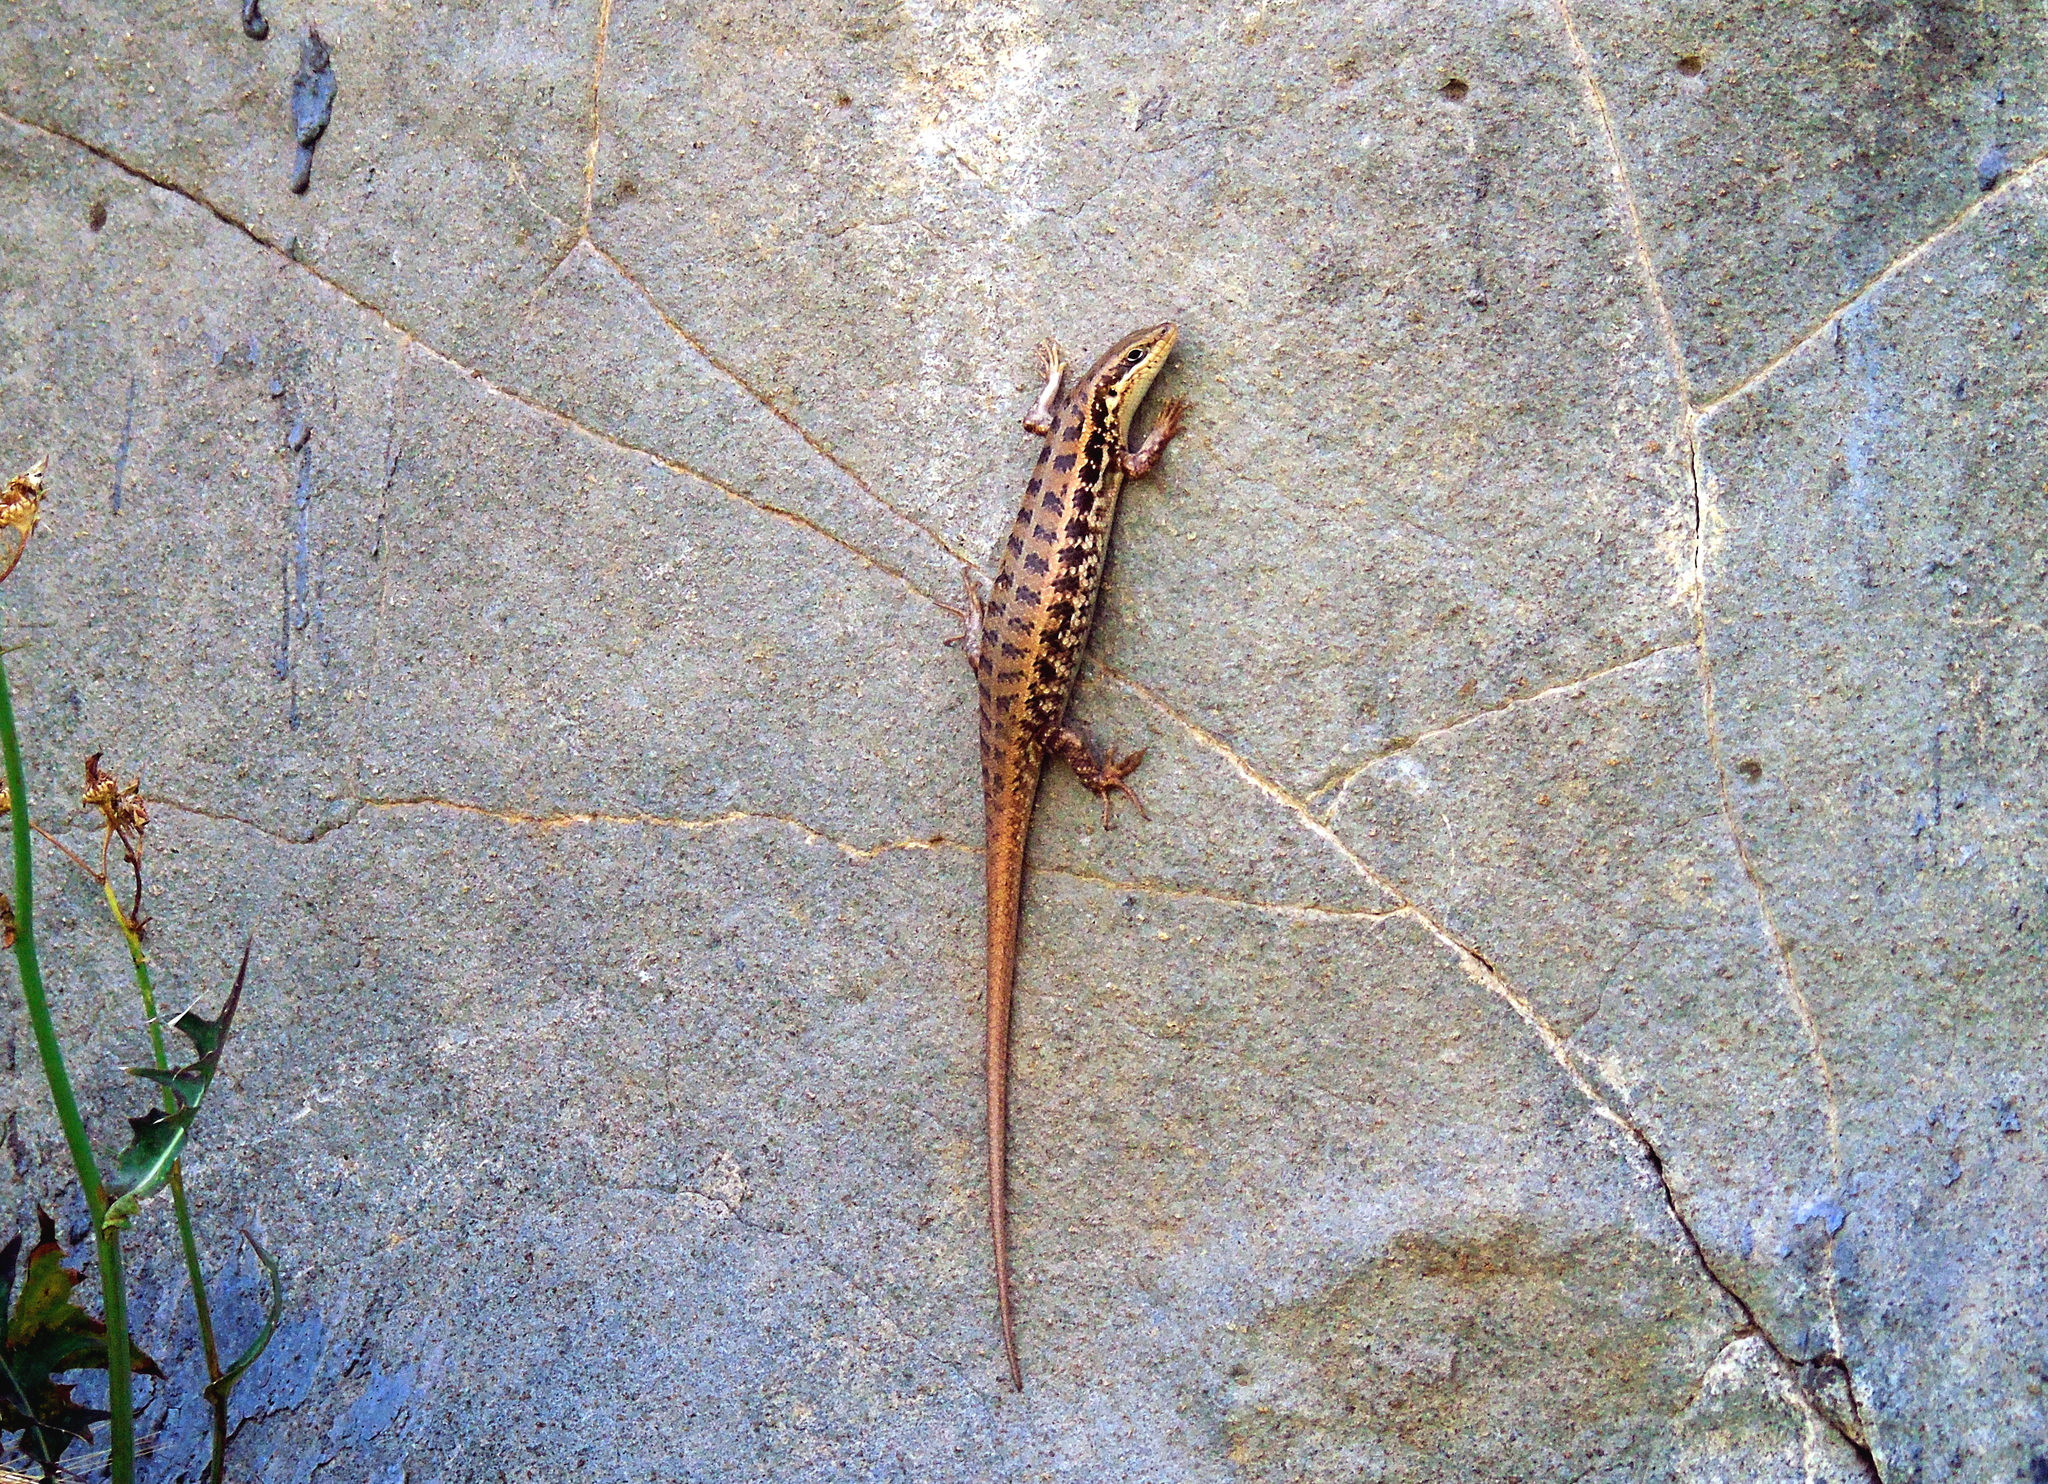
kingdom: Animalia
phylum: Chordata
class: Squamata
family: Scincidae
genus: Heremites
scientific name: Heremites auratus
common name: Golden grass mabuya
